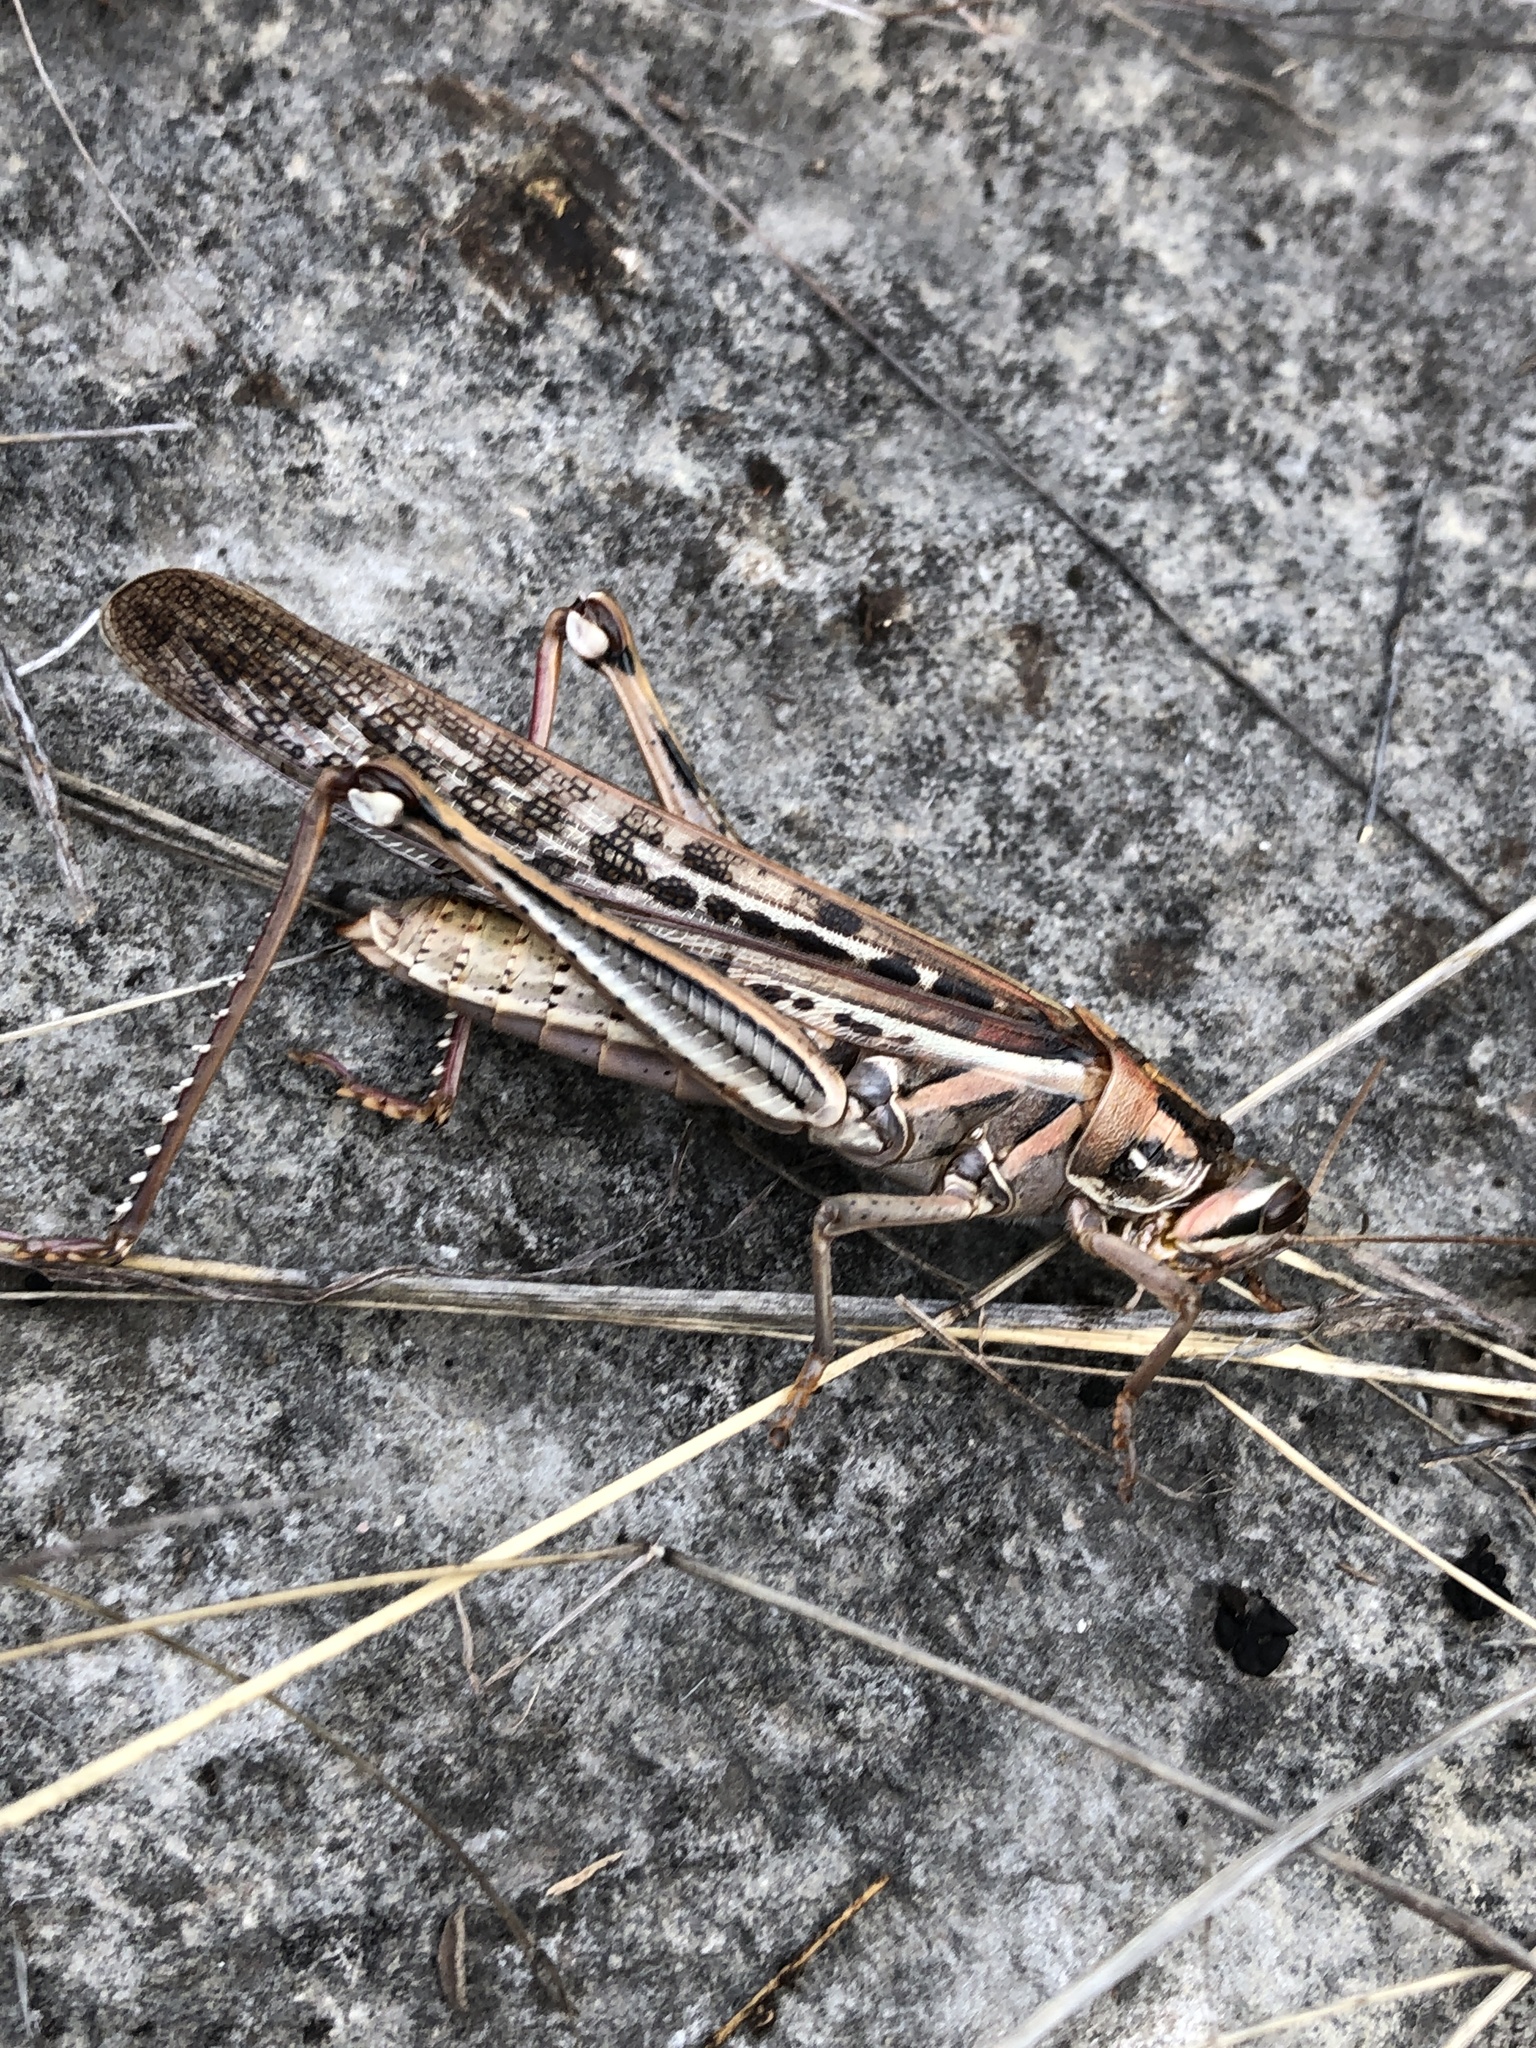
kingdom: Animalia
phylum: Arthropoda
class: Insecta
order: Orthoptera
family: Acrididae
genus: Schistocerca
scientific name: Schistocerca americana
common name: American bird locust
